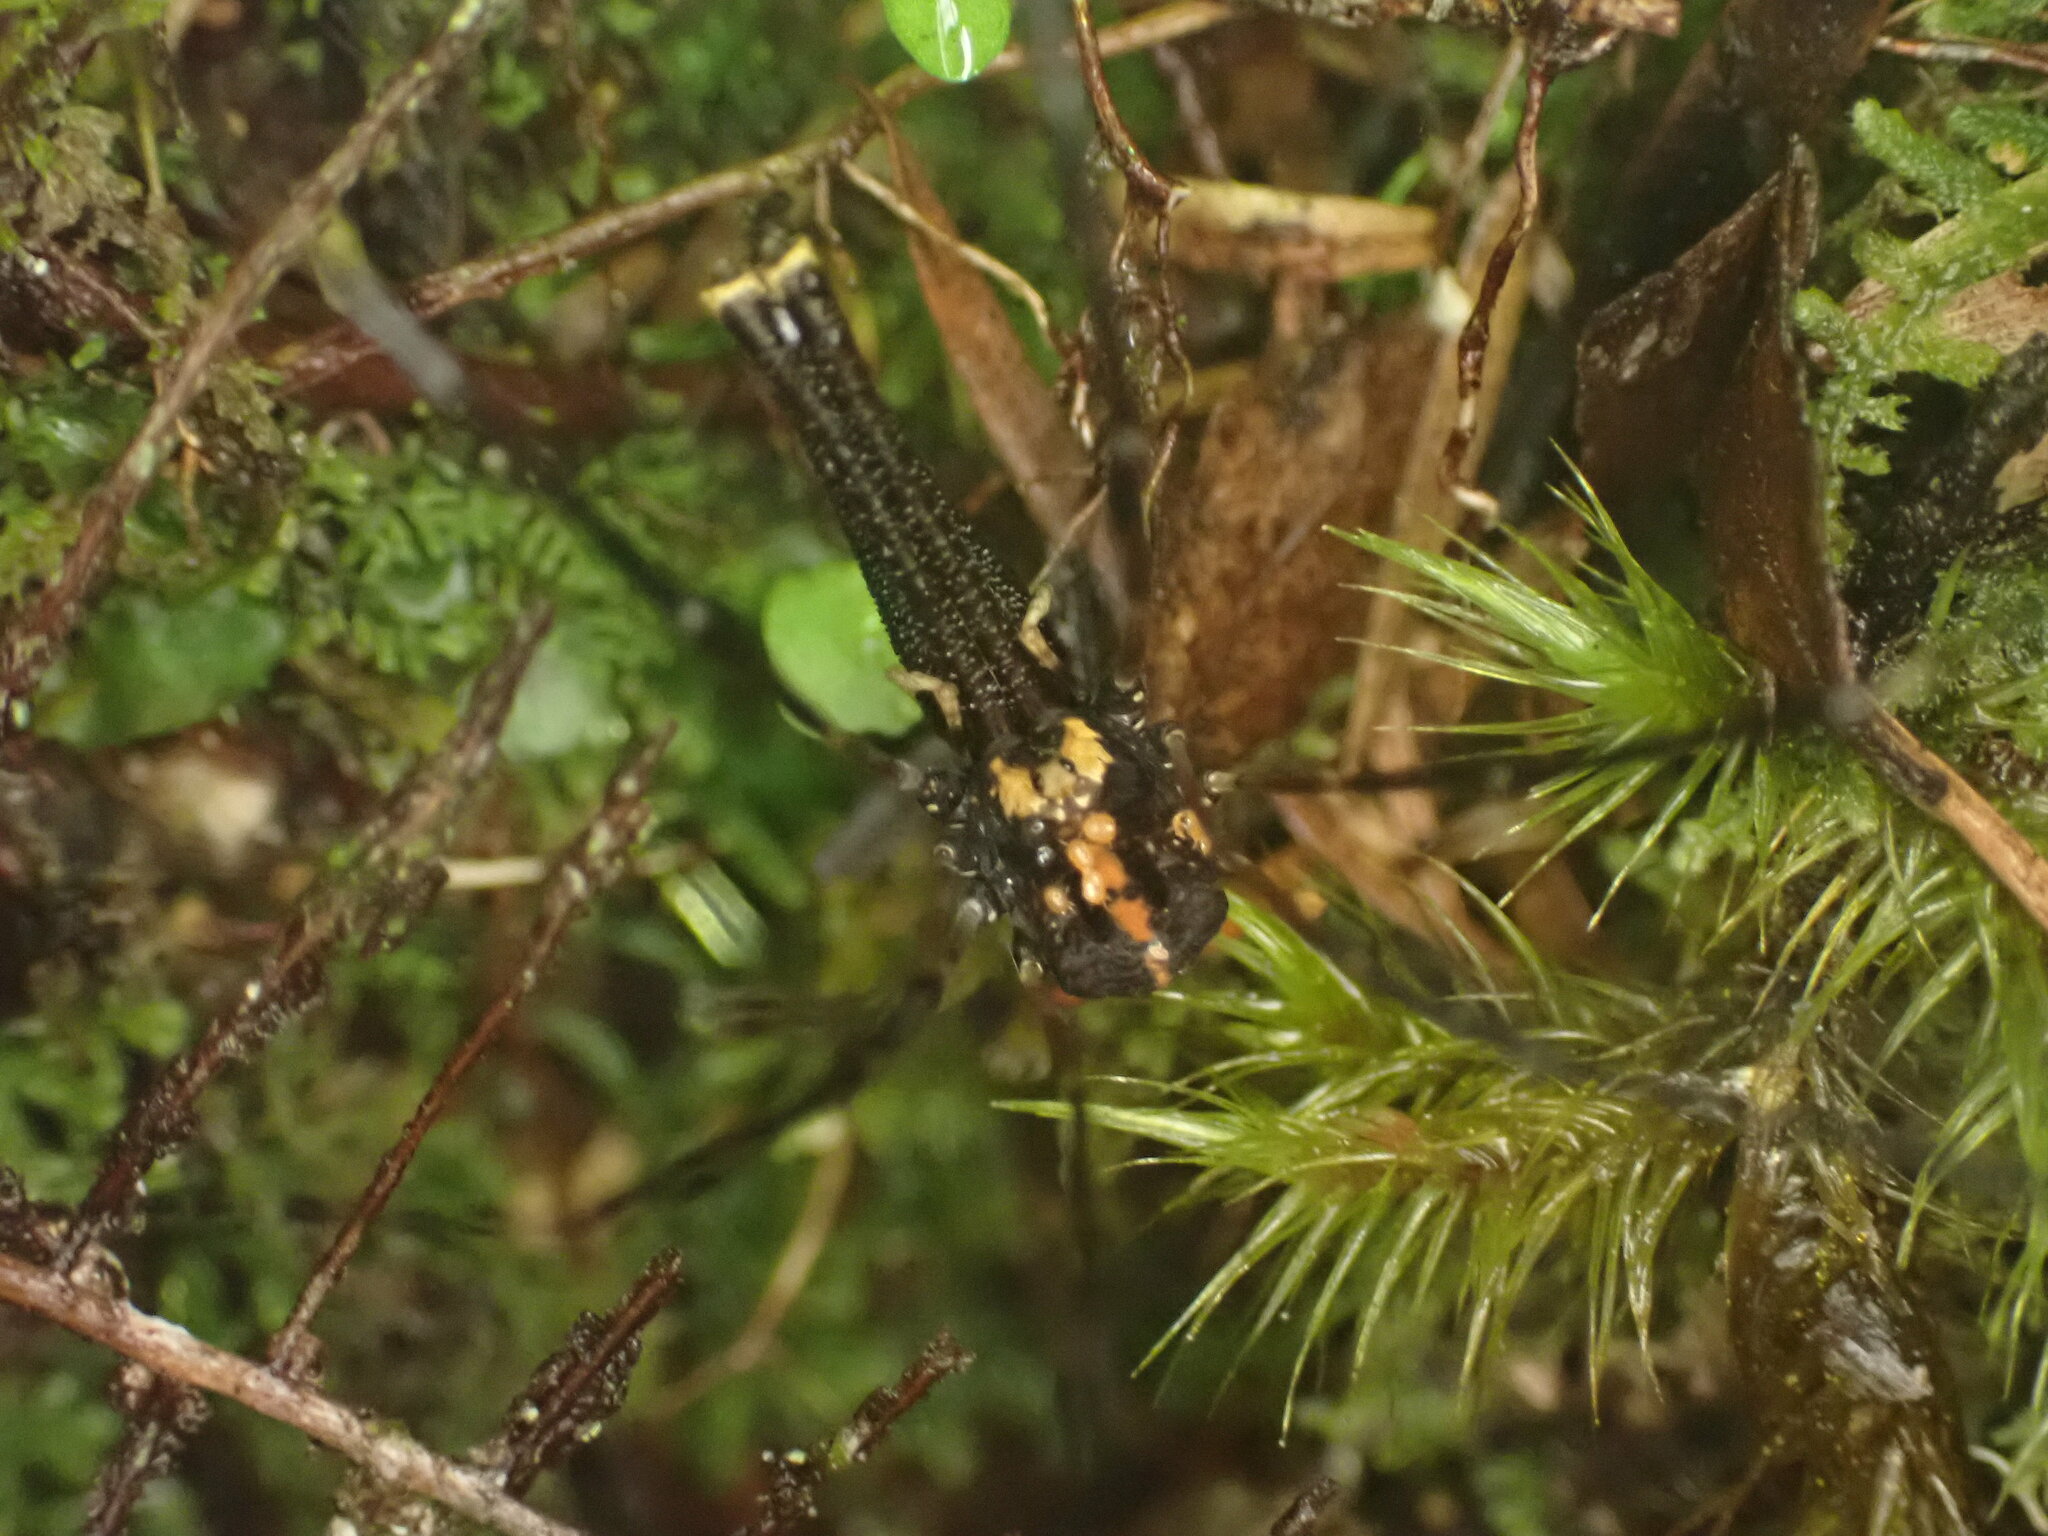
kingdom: Animalia
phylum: Arthropoda
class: Arachnida
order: Opiliones
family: Neopilionidae
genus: Forsteropsalis
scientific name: Forsteropsalis pureora
